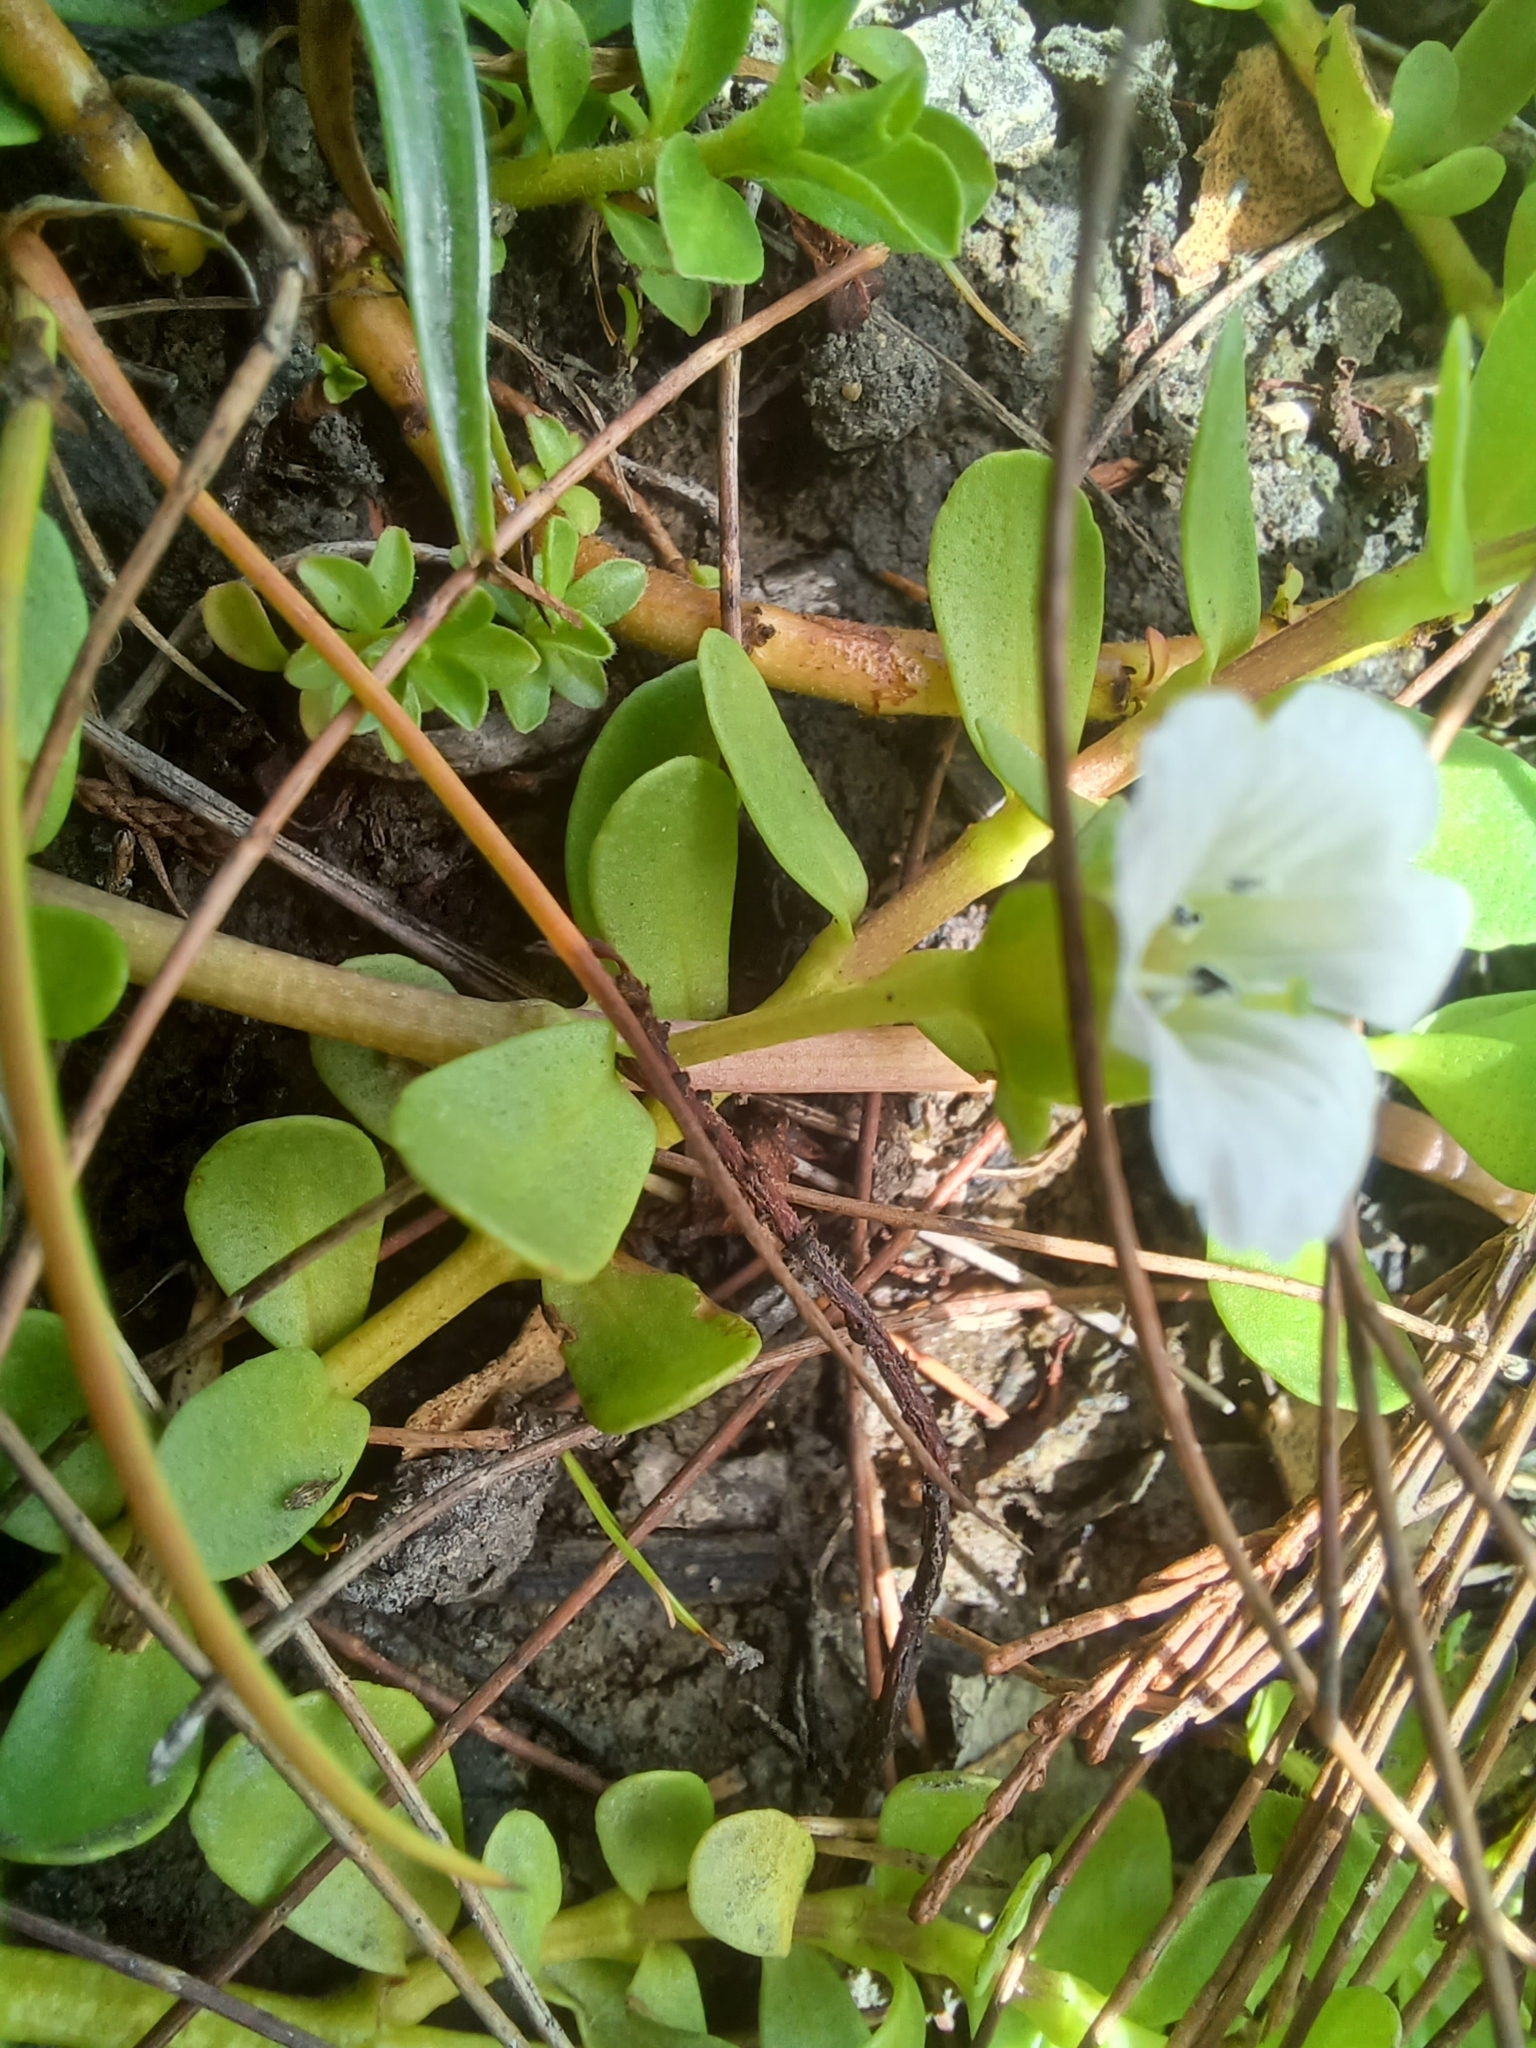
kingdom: Plantae
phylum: Tracheophyta
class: Magnoliopsida
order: Lamiales
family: Plantaginaceae
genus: Bacopa
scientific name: Bacopa monnieri
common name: Indian-pennywort
